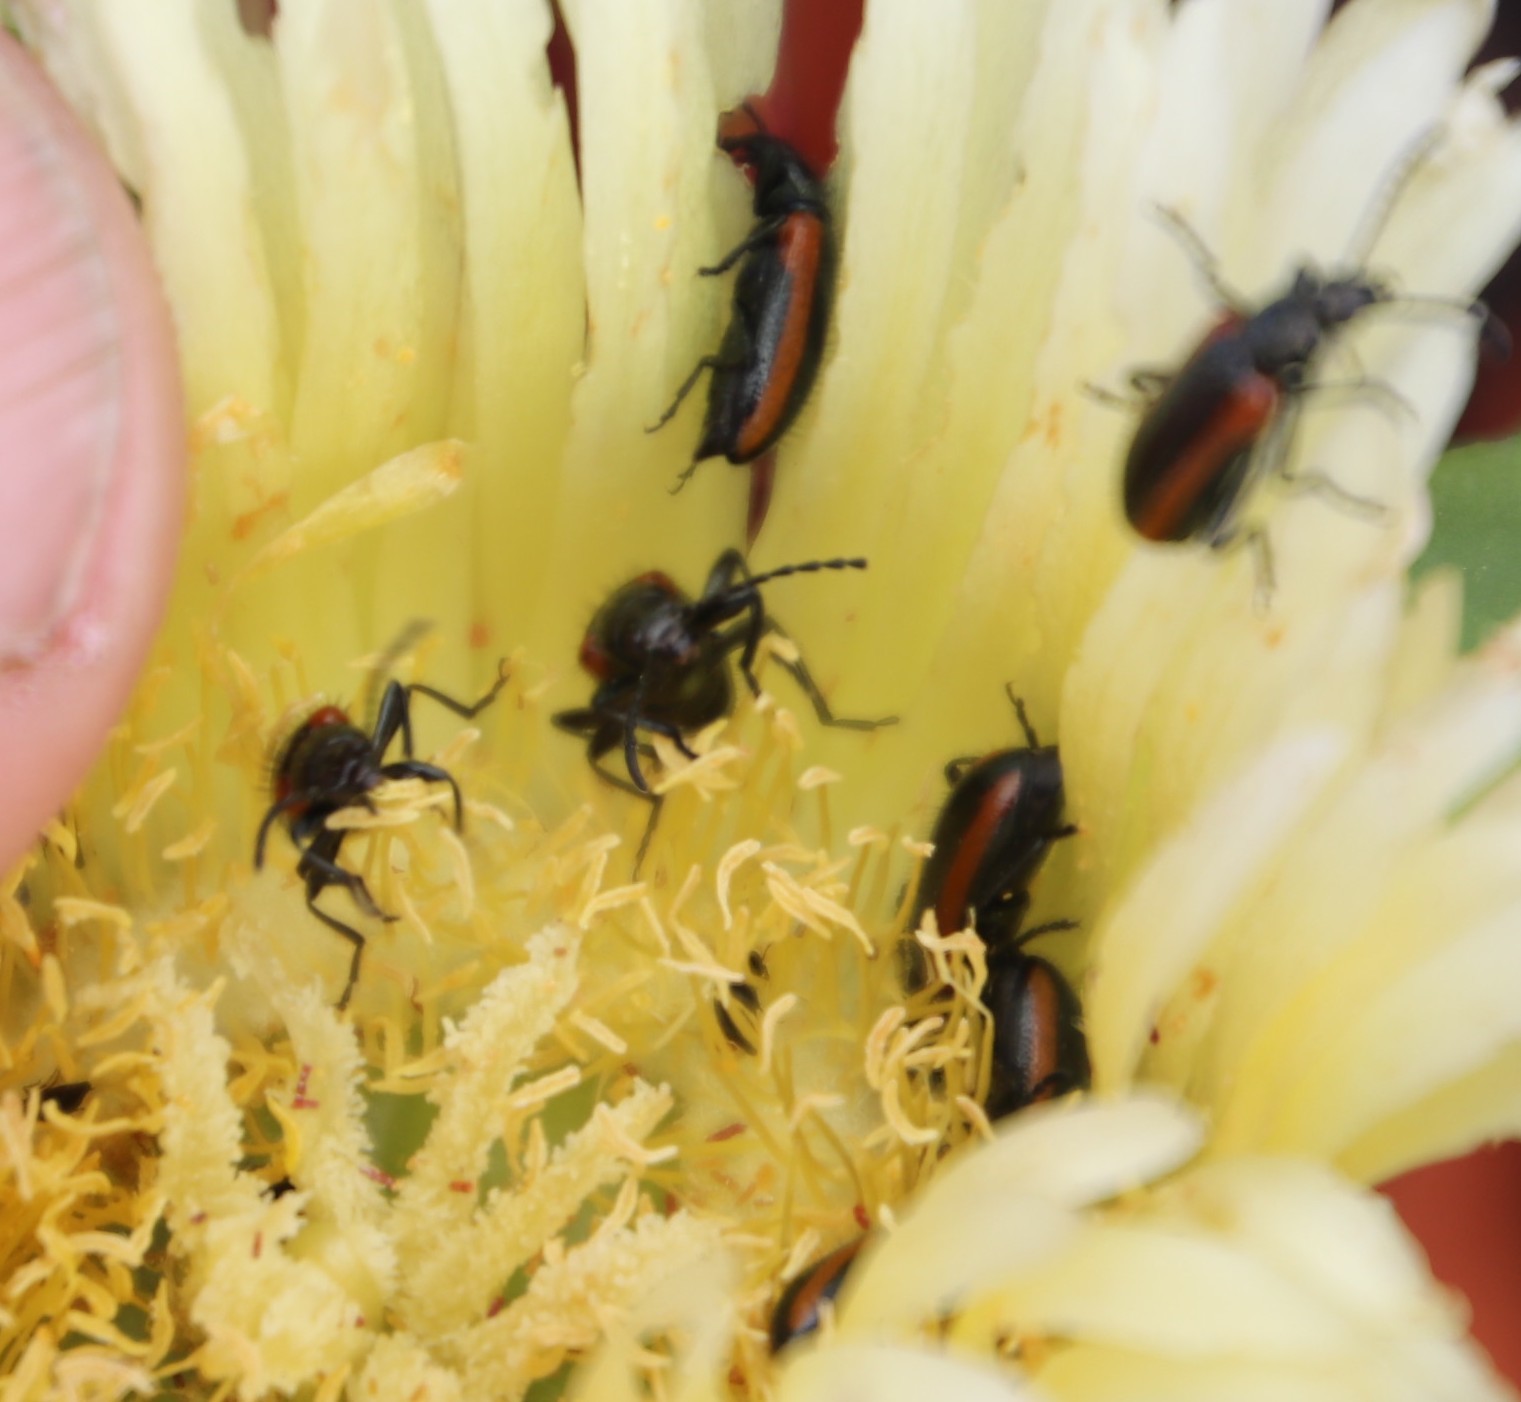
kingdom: Plantae
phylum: Tracheophyta
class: Magnoliopsida
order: Caryophyllales
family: Aizoaceae
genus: Carpobrotus
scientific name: Carpobrotus edulis
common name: Hottentot-fig
